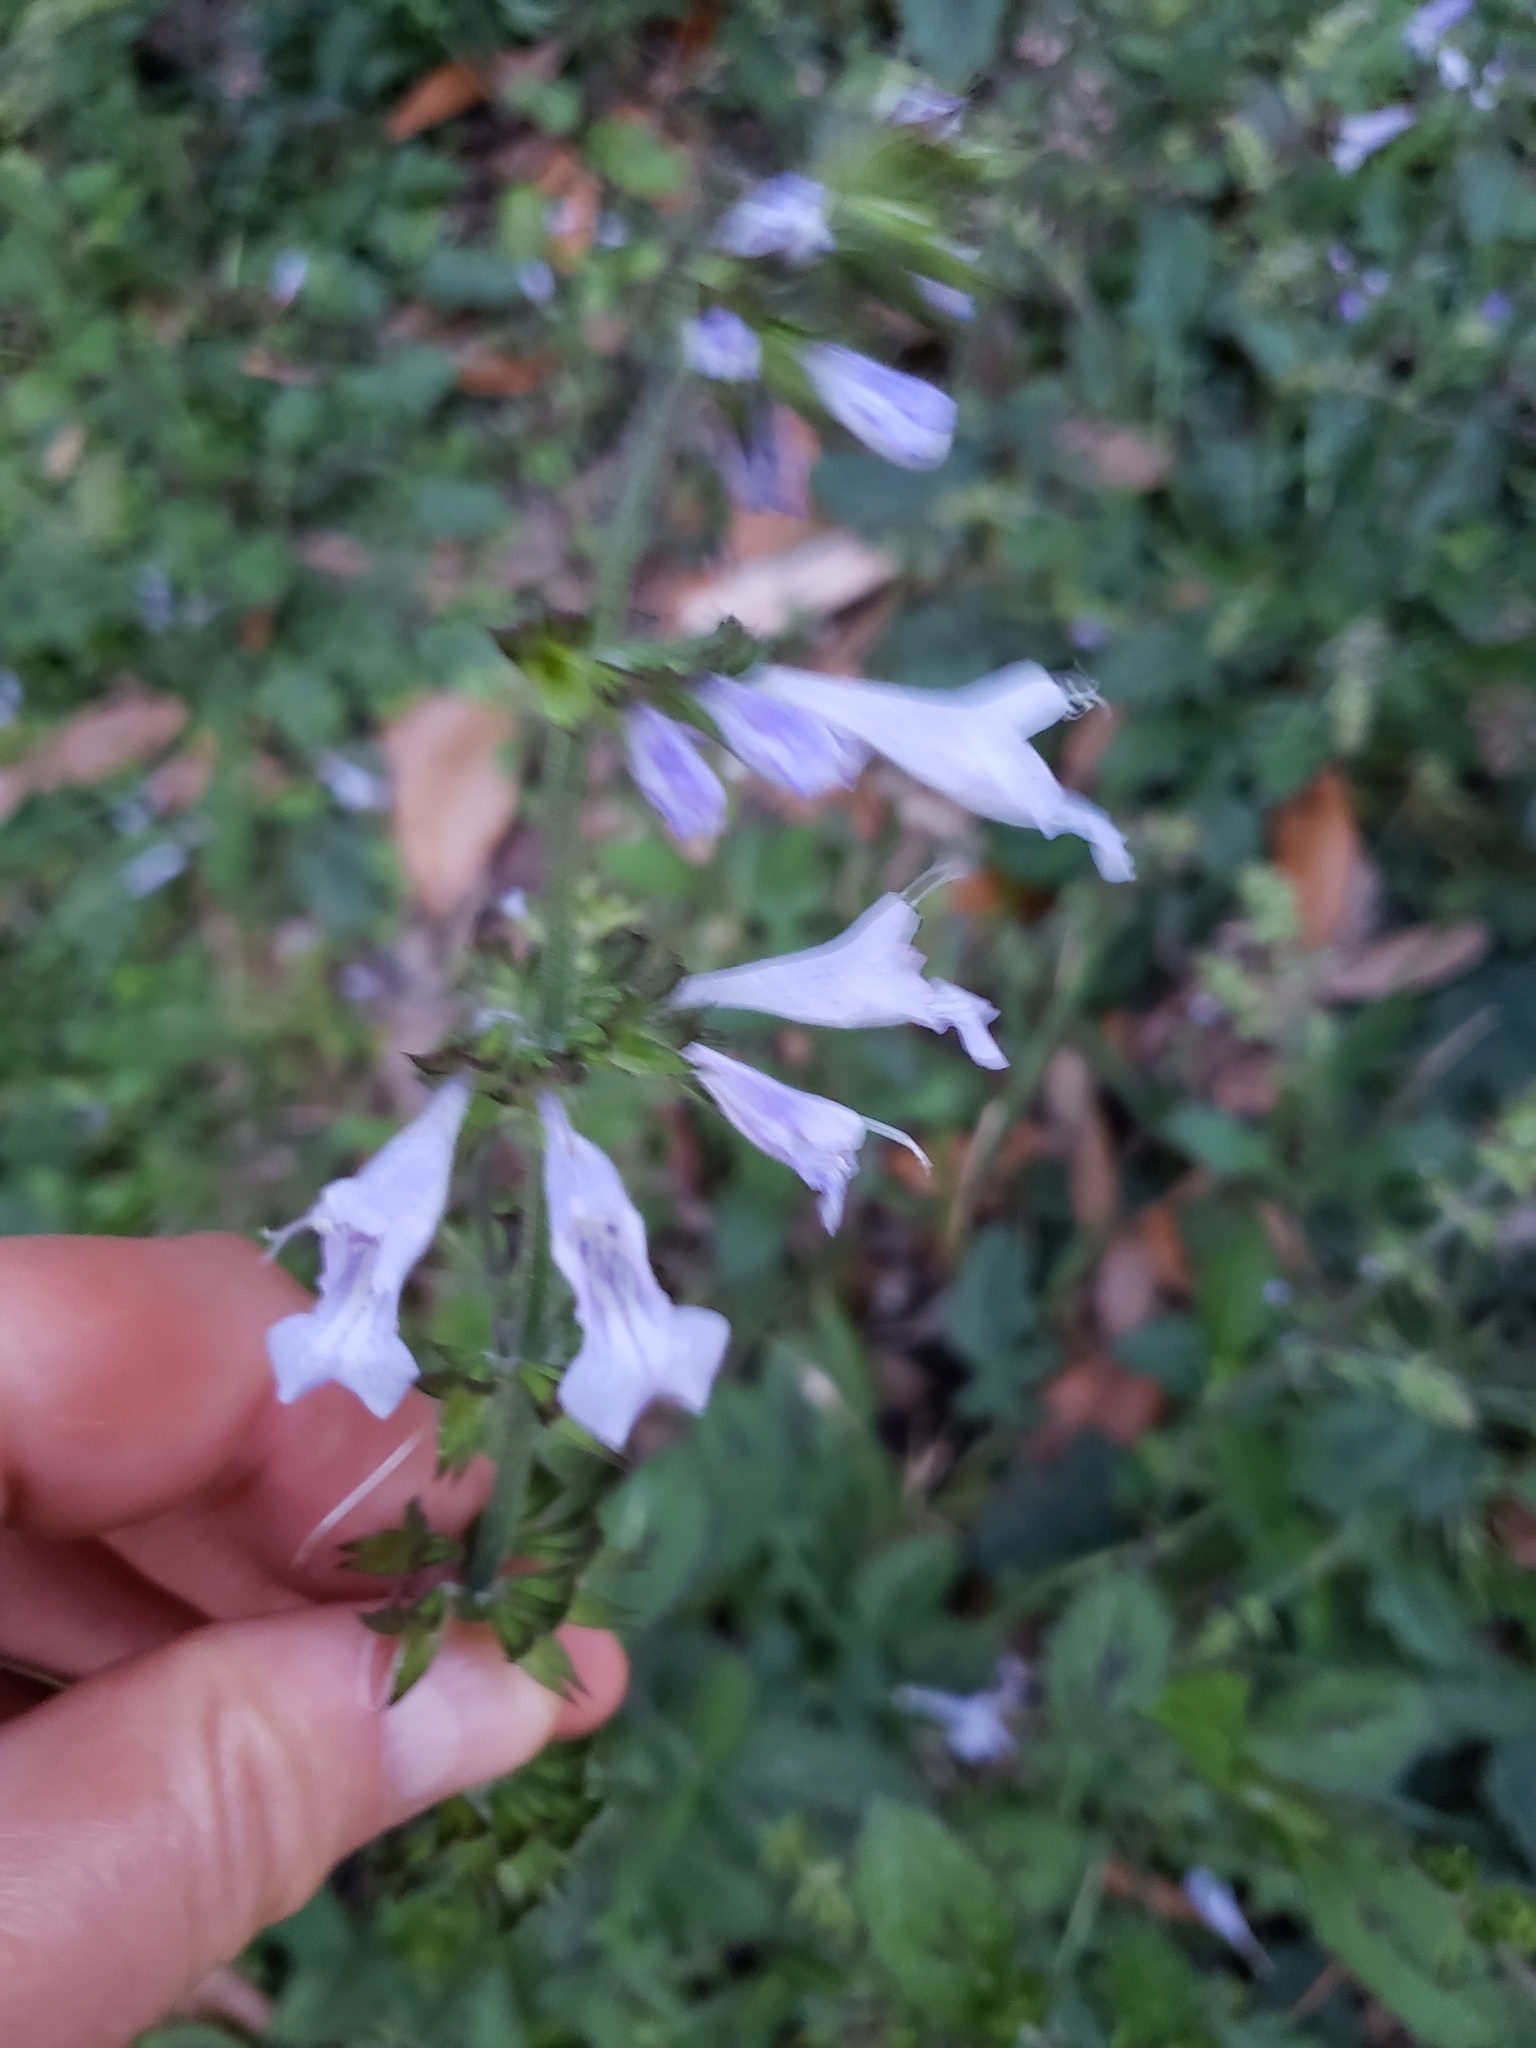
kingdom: Plantae
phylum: Tracheophyta
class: Magnoliopsida
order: Lamiales
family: Lamiaceae
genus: Salvia
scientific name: Salvia lyrata
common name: Cancerweed
